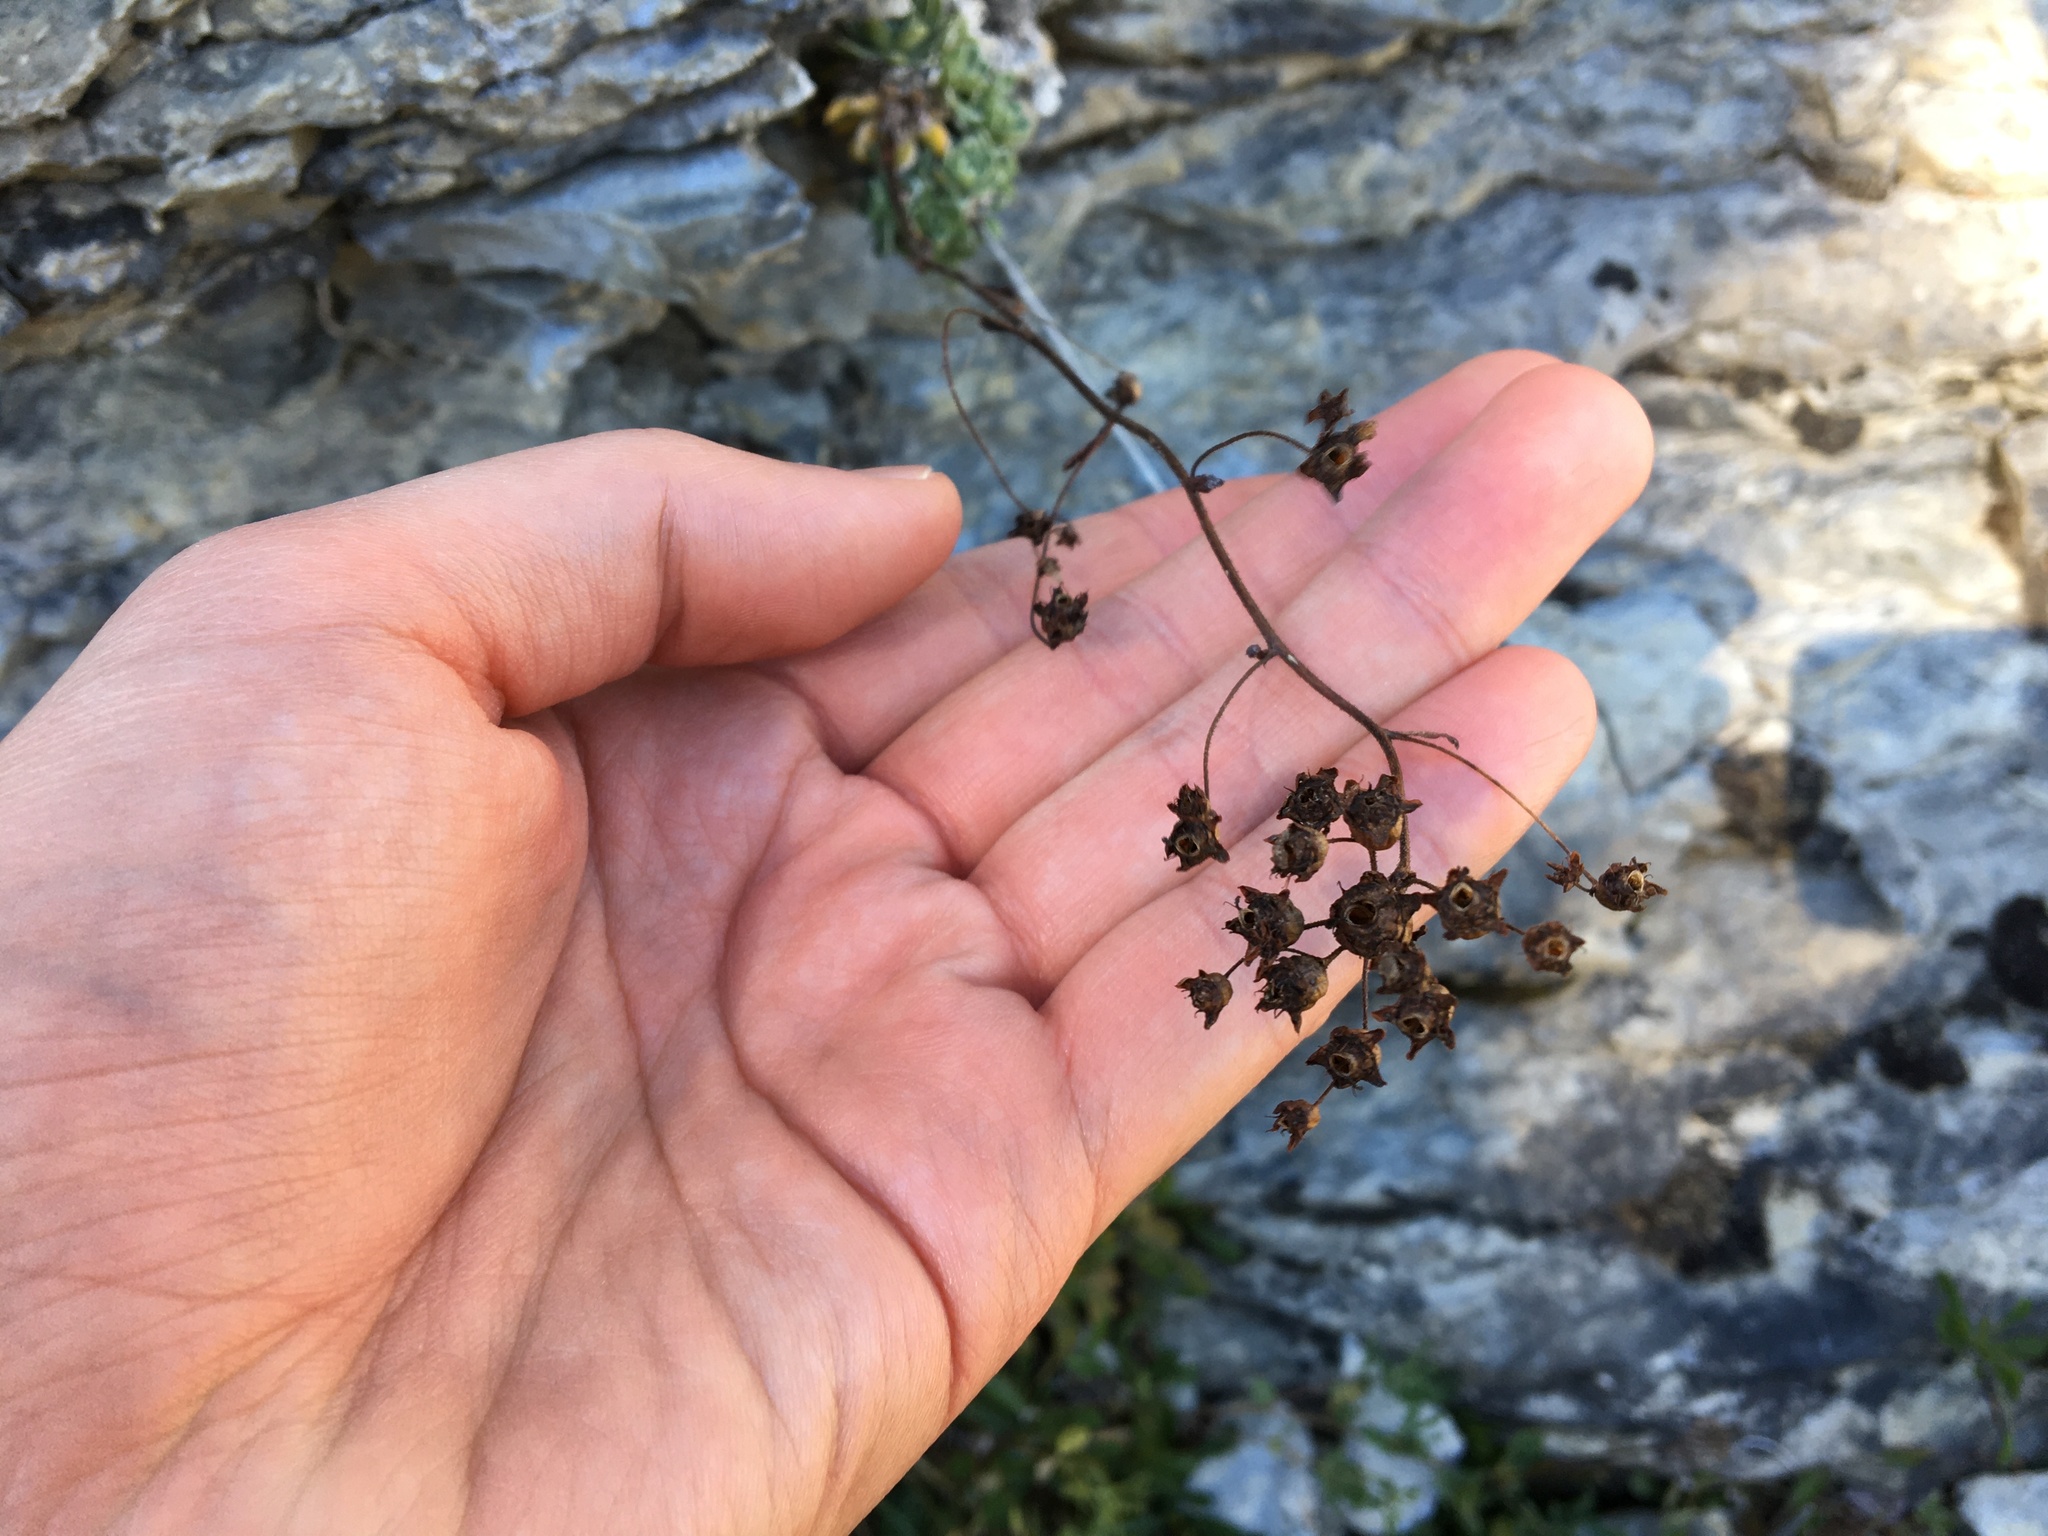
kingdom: Plantae
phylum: Tracheophyta
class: Magnoliopsida
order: Saxifragales
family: Saxifragaceae
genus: Saxifraga
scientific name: Saxifraga paniculata
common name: Livelong saxifrage
